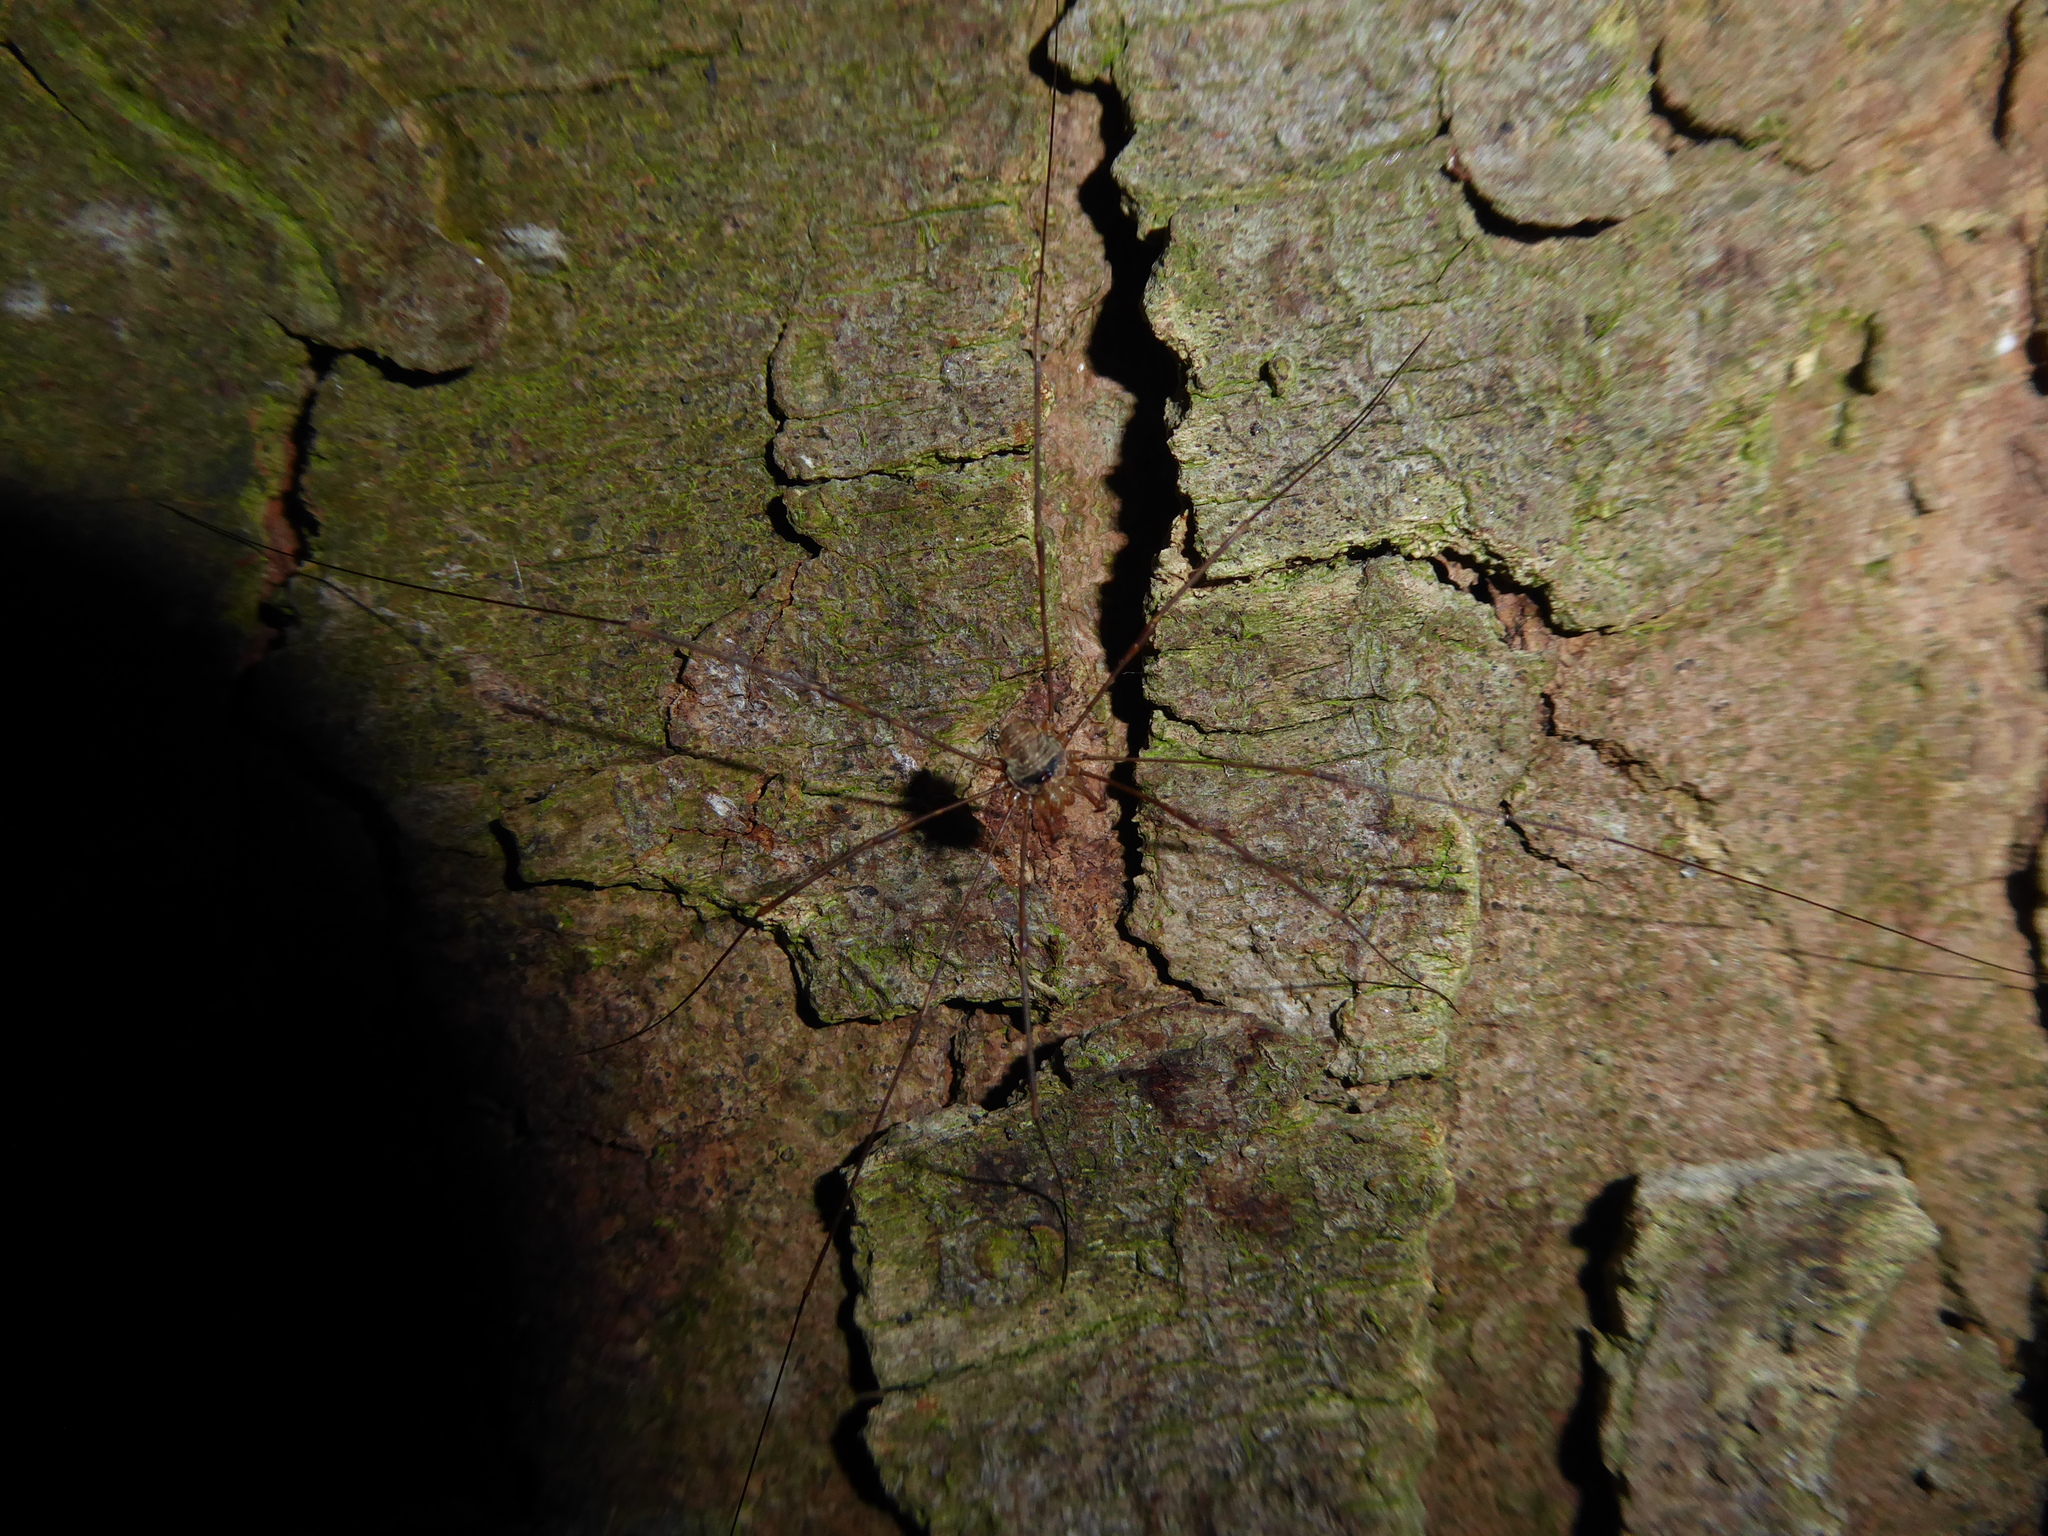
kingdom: Animalia
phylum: Arthropoda
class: Arachnida
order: Opiliones
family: Phalangiidae
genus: Dicranopalpus
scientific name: Dicranopalpus
